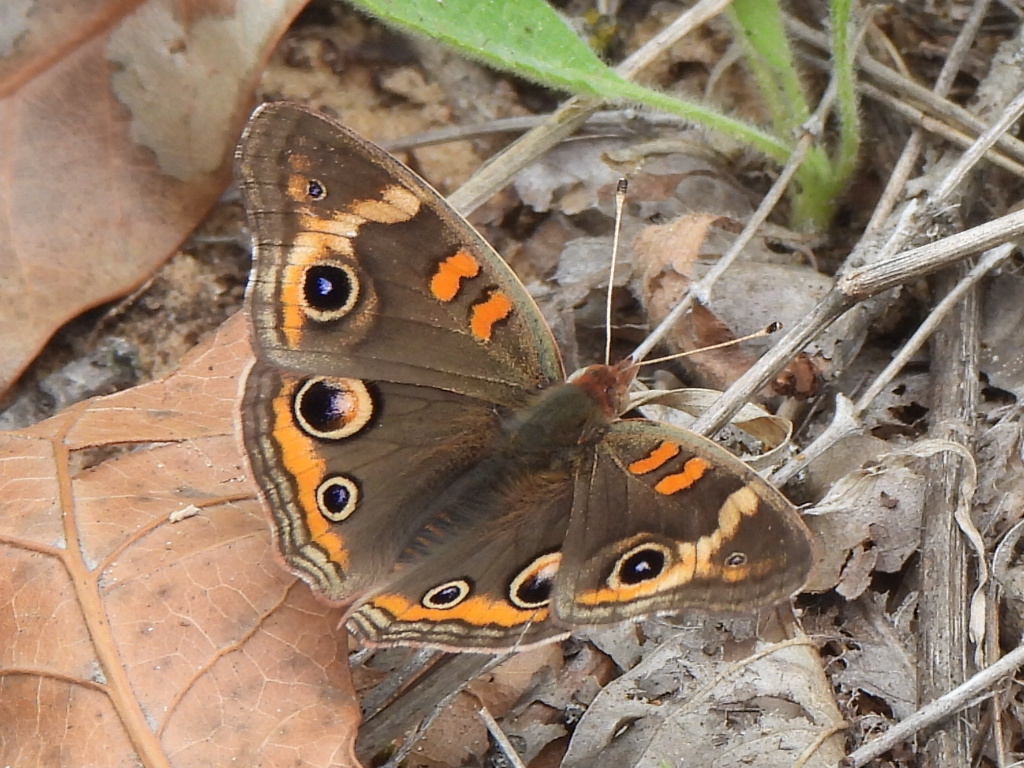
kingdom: Animalia
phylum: Arthropoda
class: Insecta
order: Lepidoptera
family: Nymphalidae
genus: Junonia
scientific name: Junonia coenia
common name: Common buckeye
